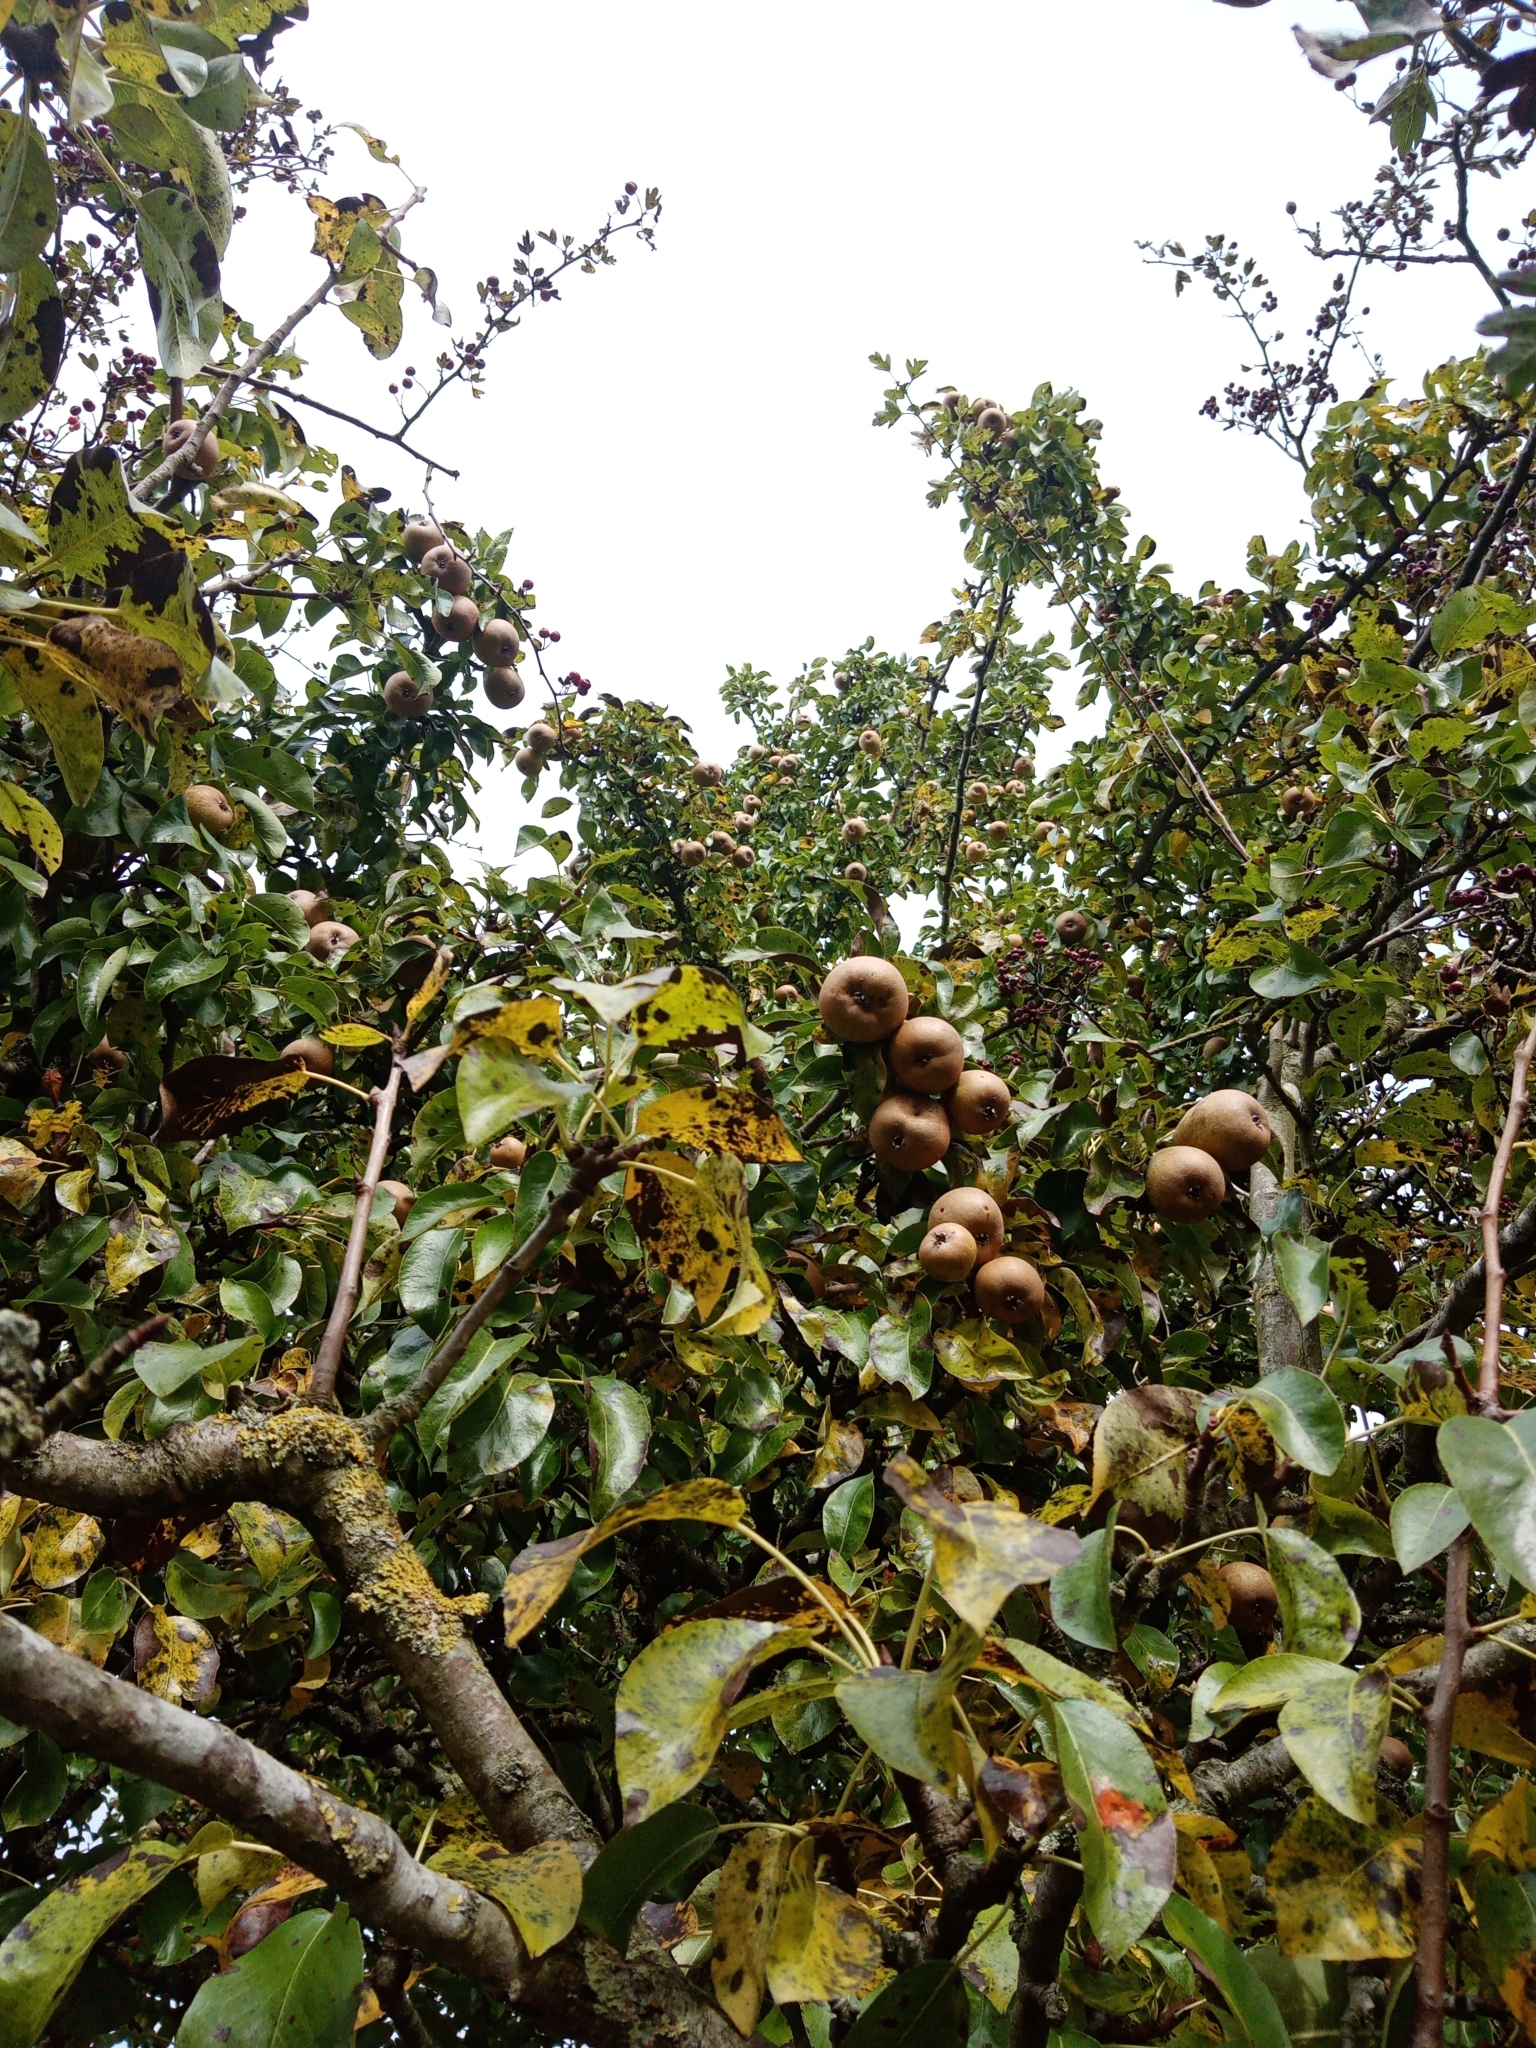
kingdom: Plantae
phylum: Tracheophyta
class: Magnoliopsida
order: Rosales
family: Rosaceae
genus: Pyrus
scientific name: Pyrus communis
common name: Pear
